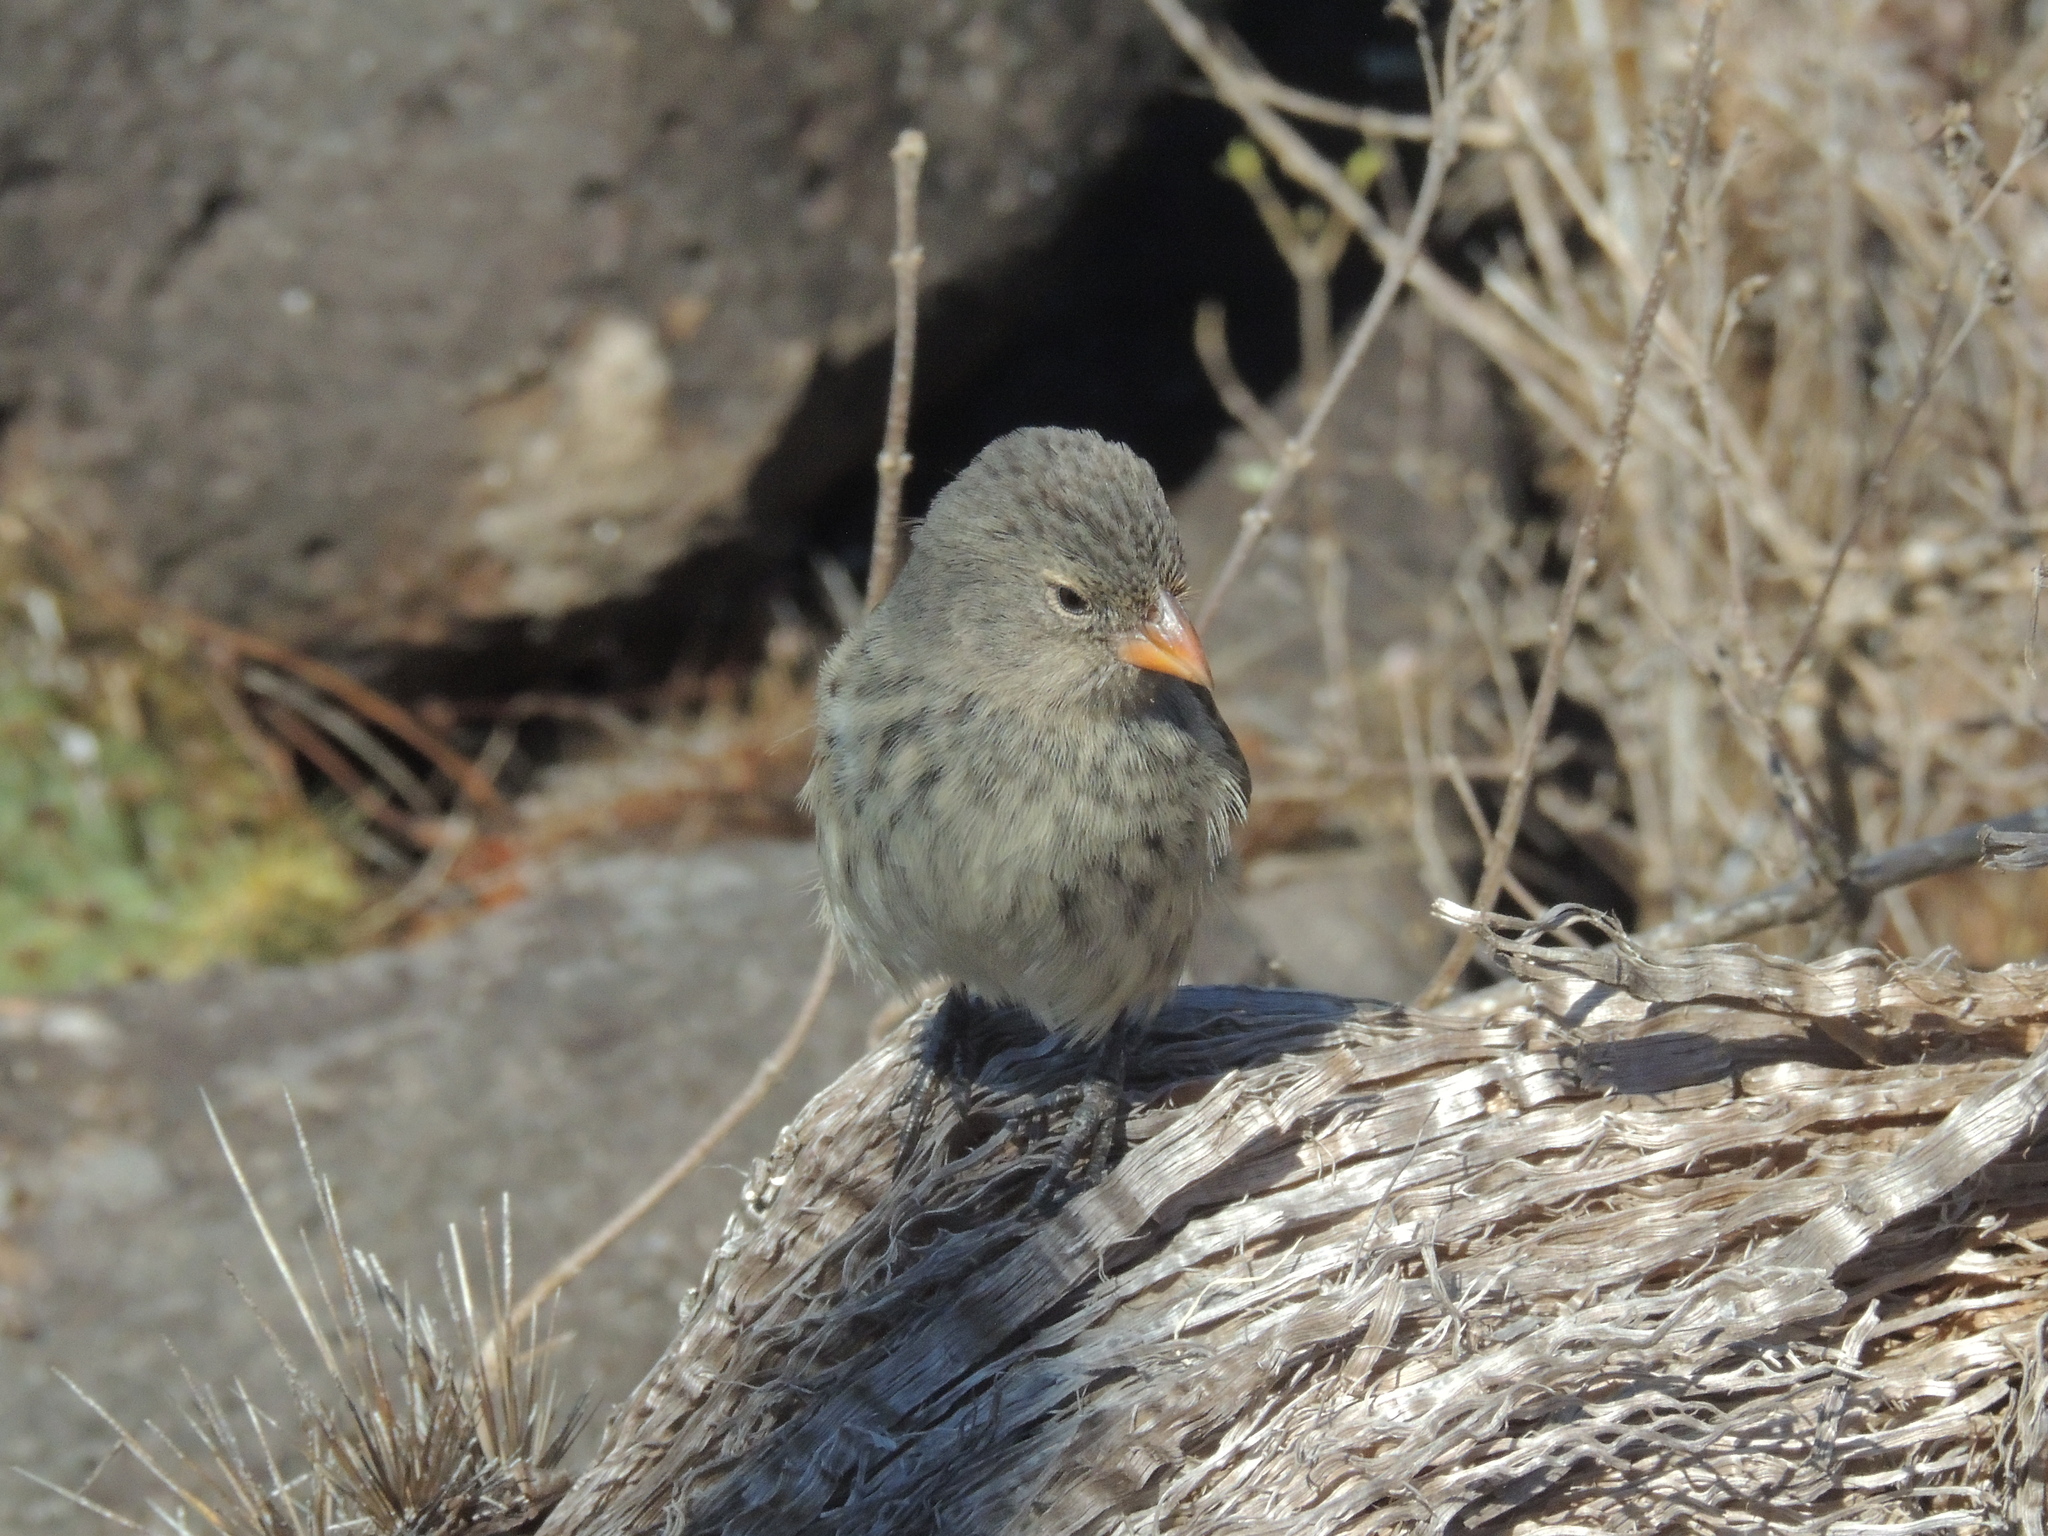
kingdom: Animalia
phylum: Chordata
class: Aves
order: Passeriformes
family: Thraupidae
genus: Geospiza
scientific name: Geospiza fuliginosa
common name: Small ground finch
